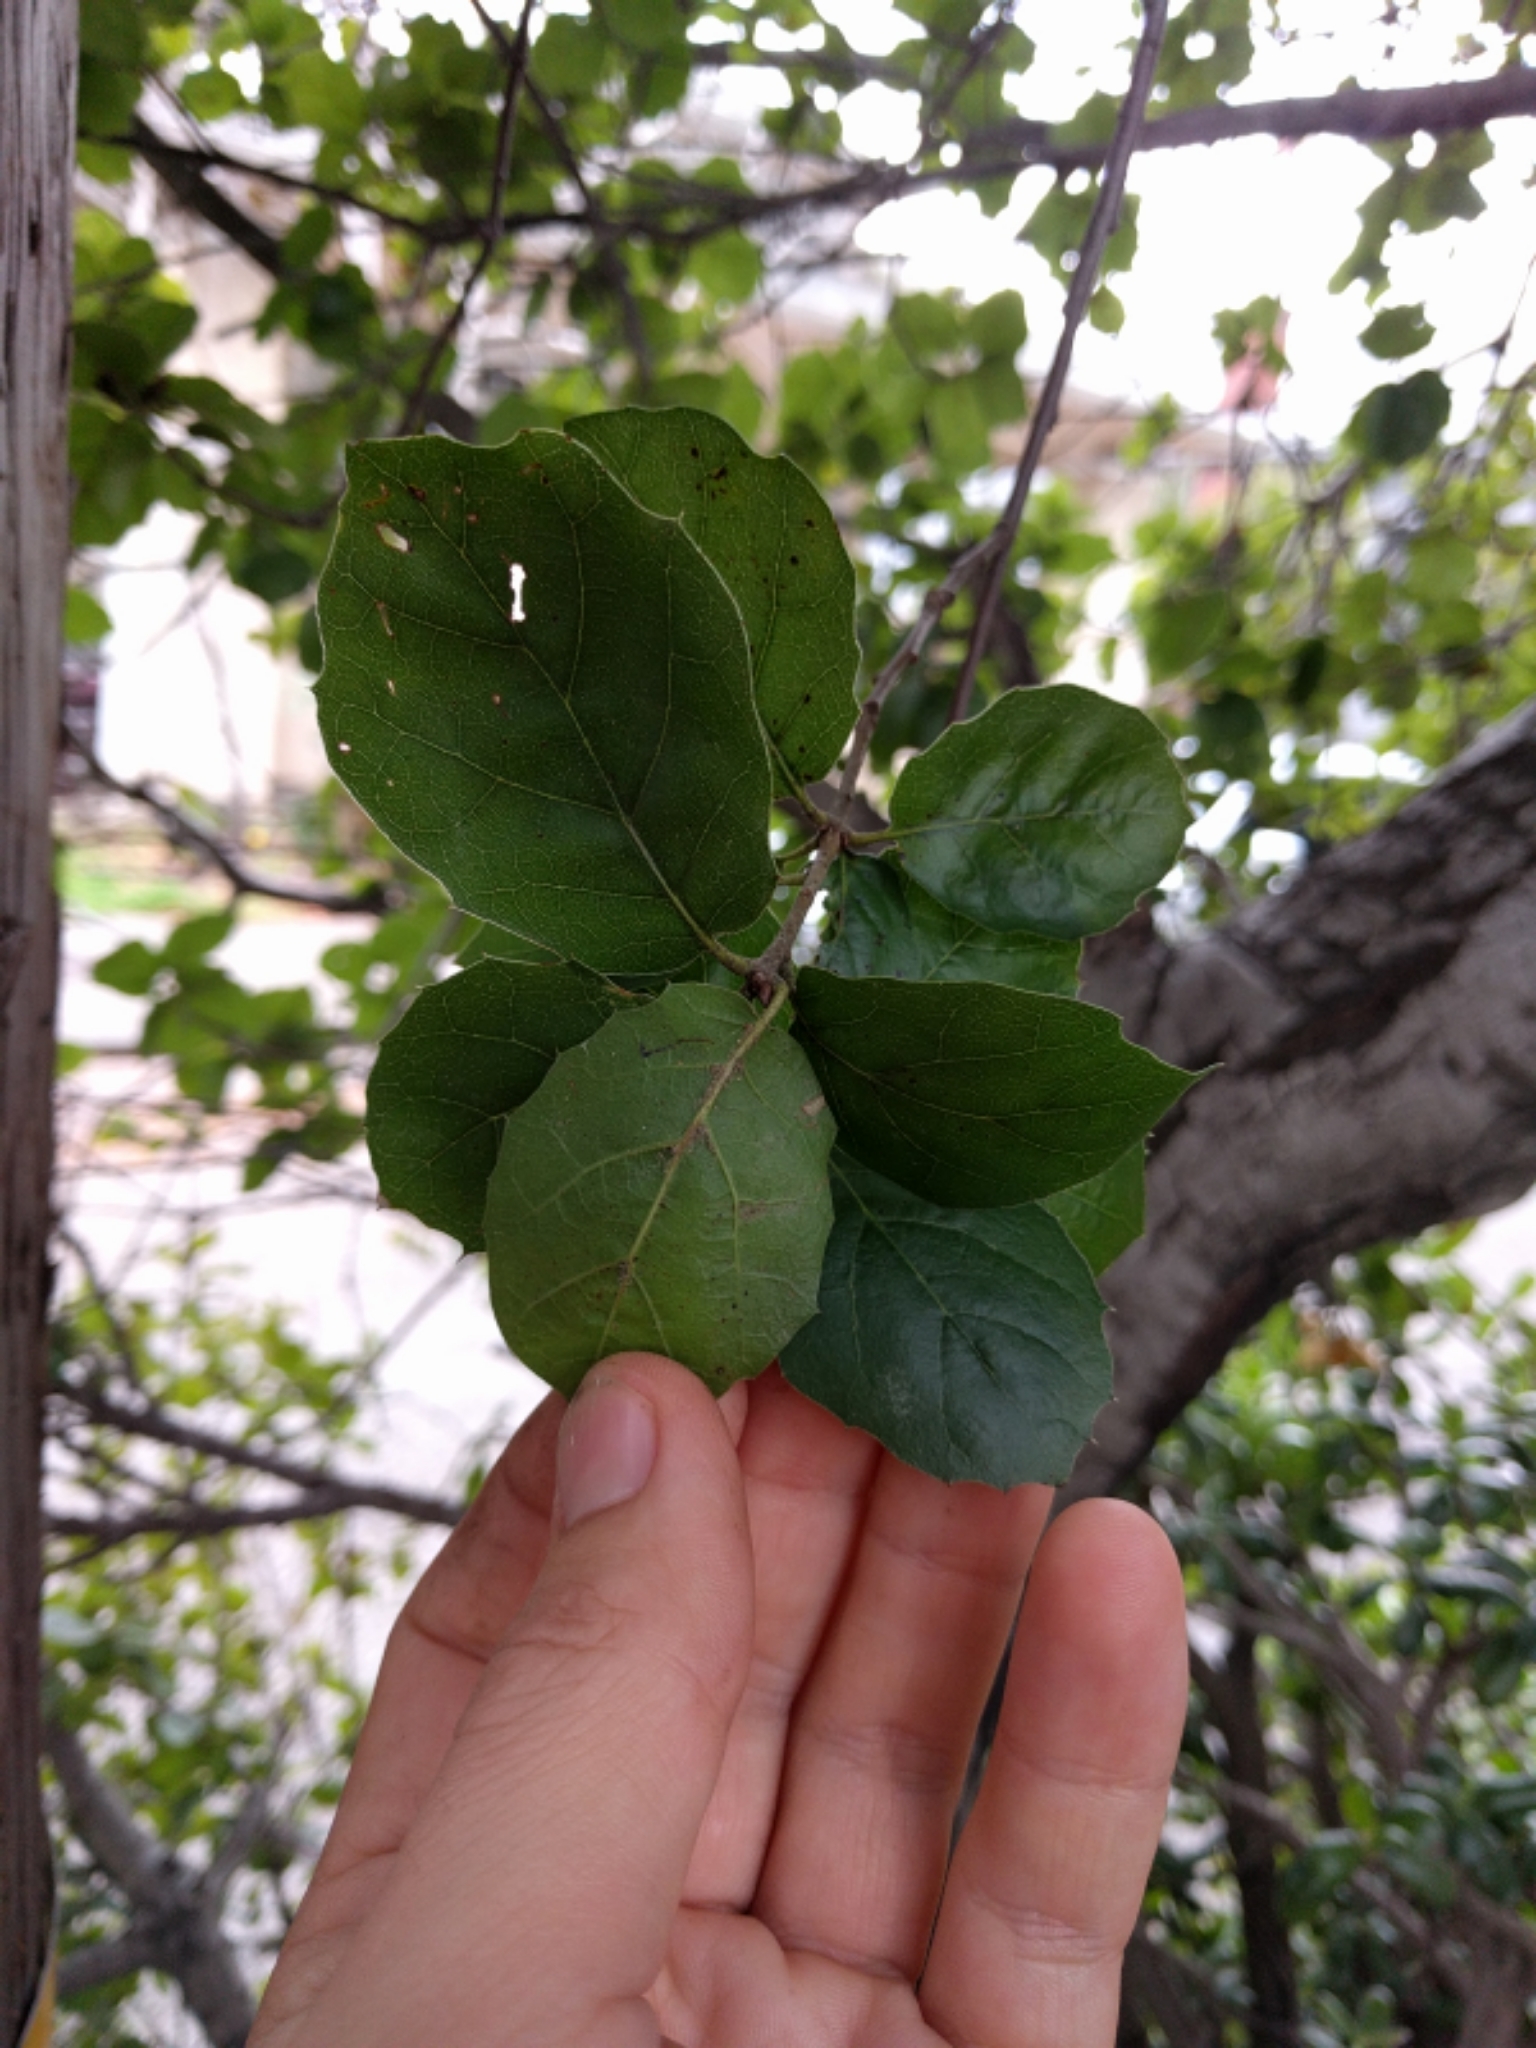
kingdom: Plantae
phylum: Tracheophyta
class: Magnoliopsida
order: Fagales
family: Fagaceae
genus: Quercus
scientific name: Quercus agrifolia
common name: California live oak
